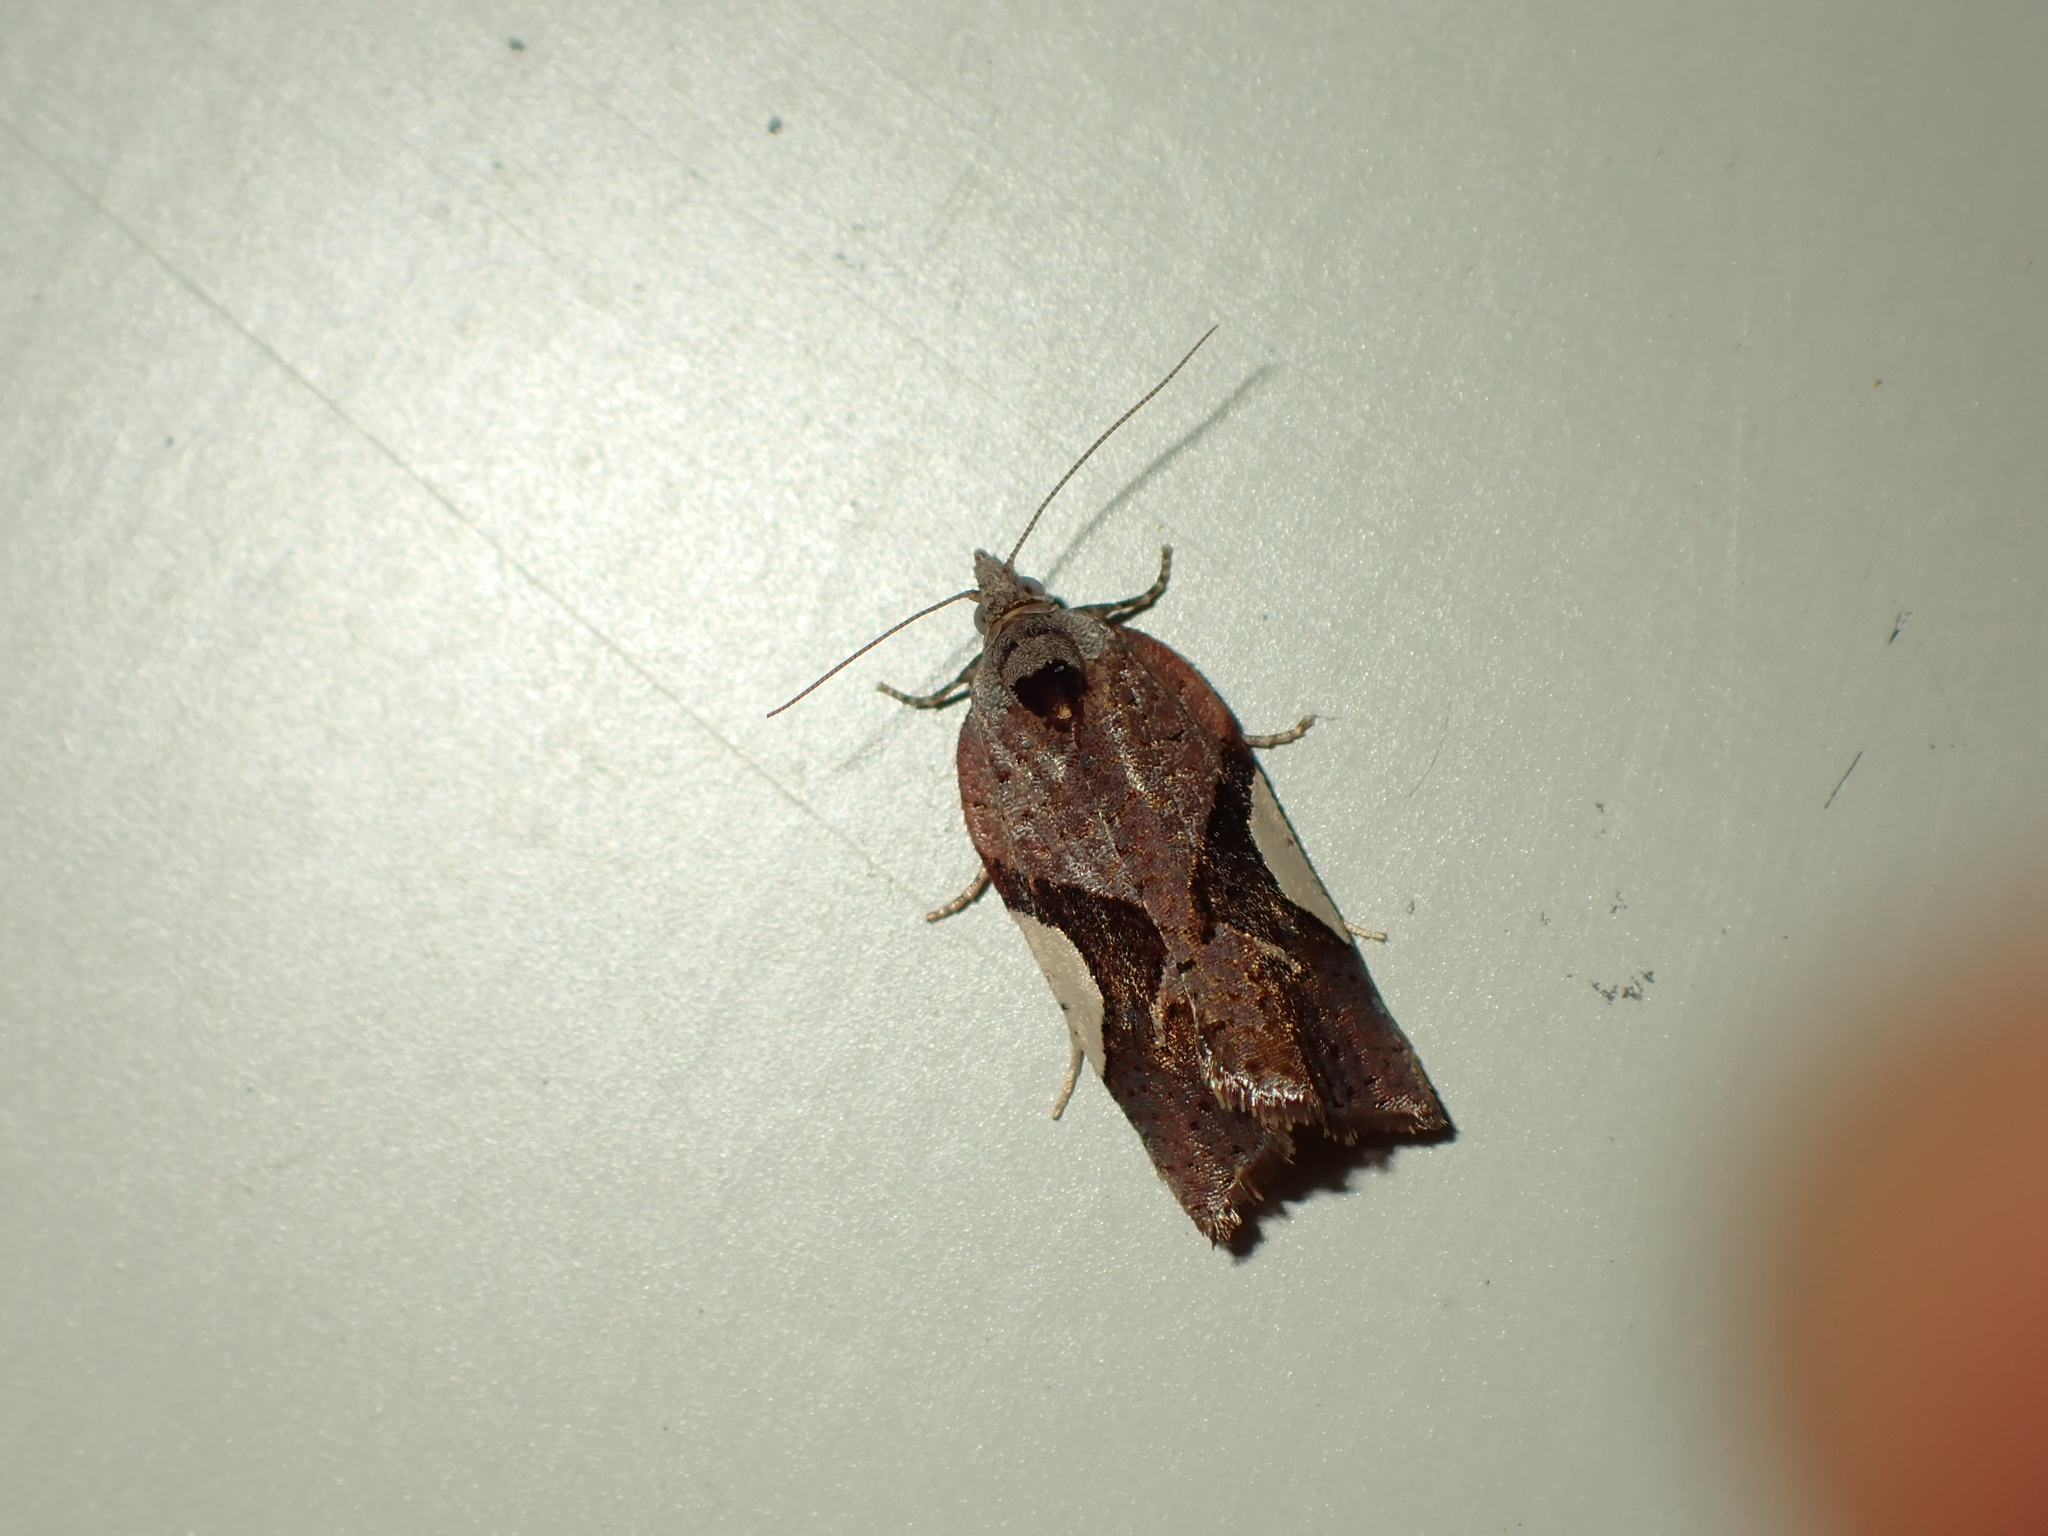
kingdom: Animalia
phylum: Arthropoda
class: Insecta
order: Lepidoptera
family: Tortricidae
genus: Pyrgotis
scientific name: Pyrgotis plagiatana
